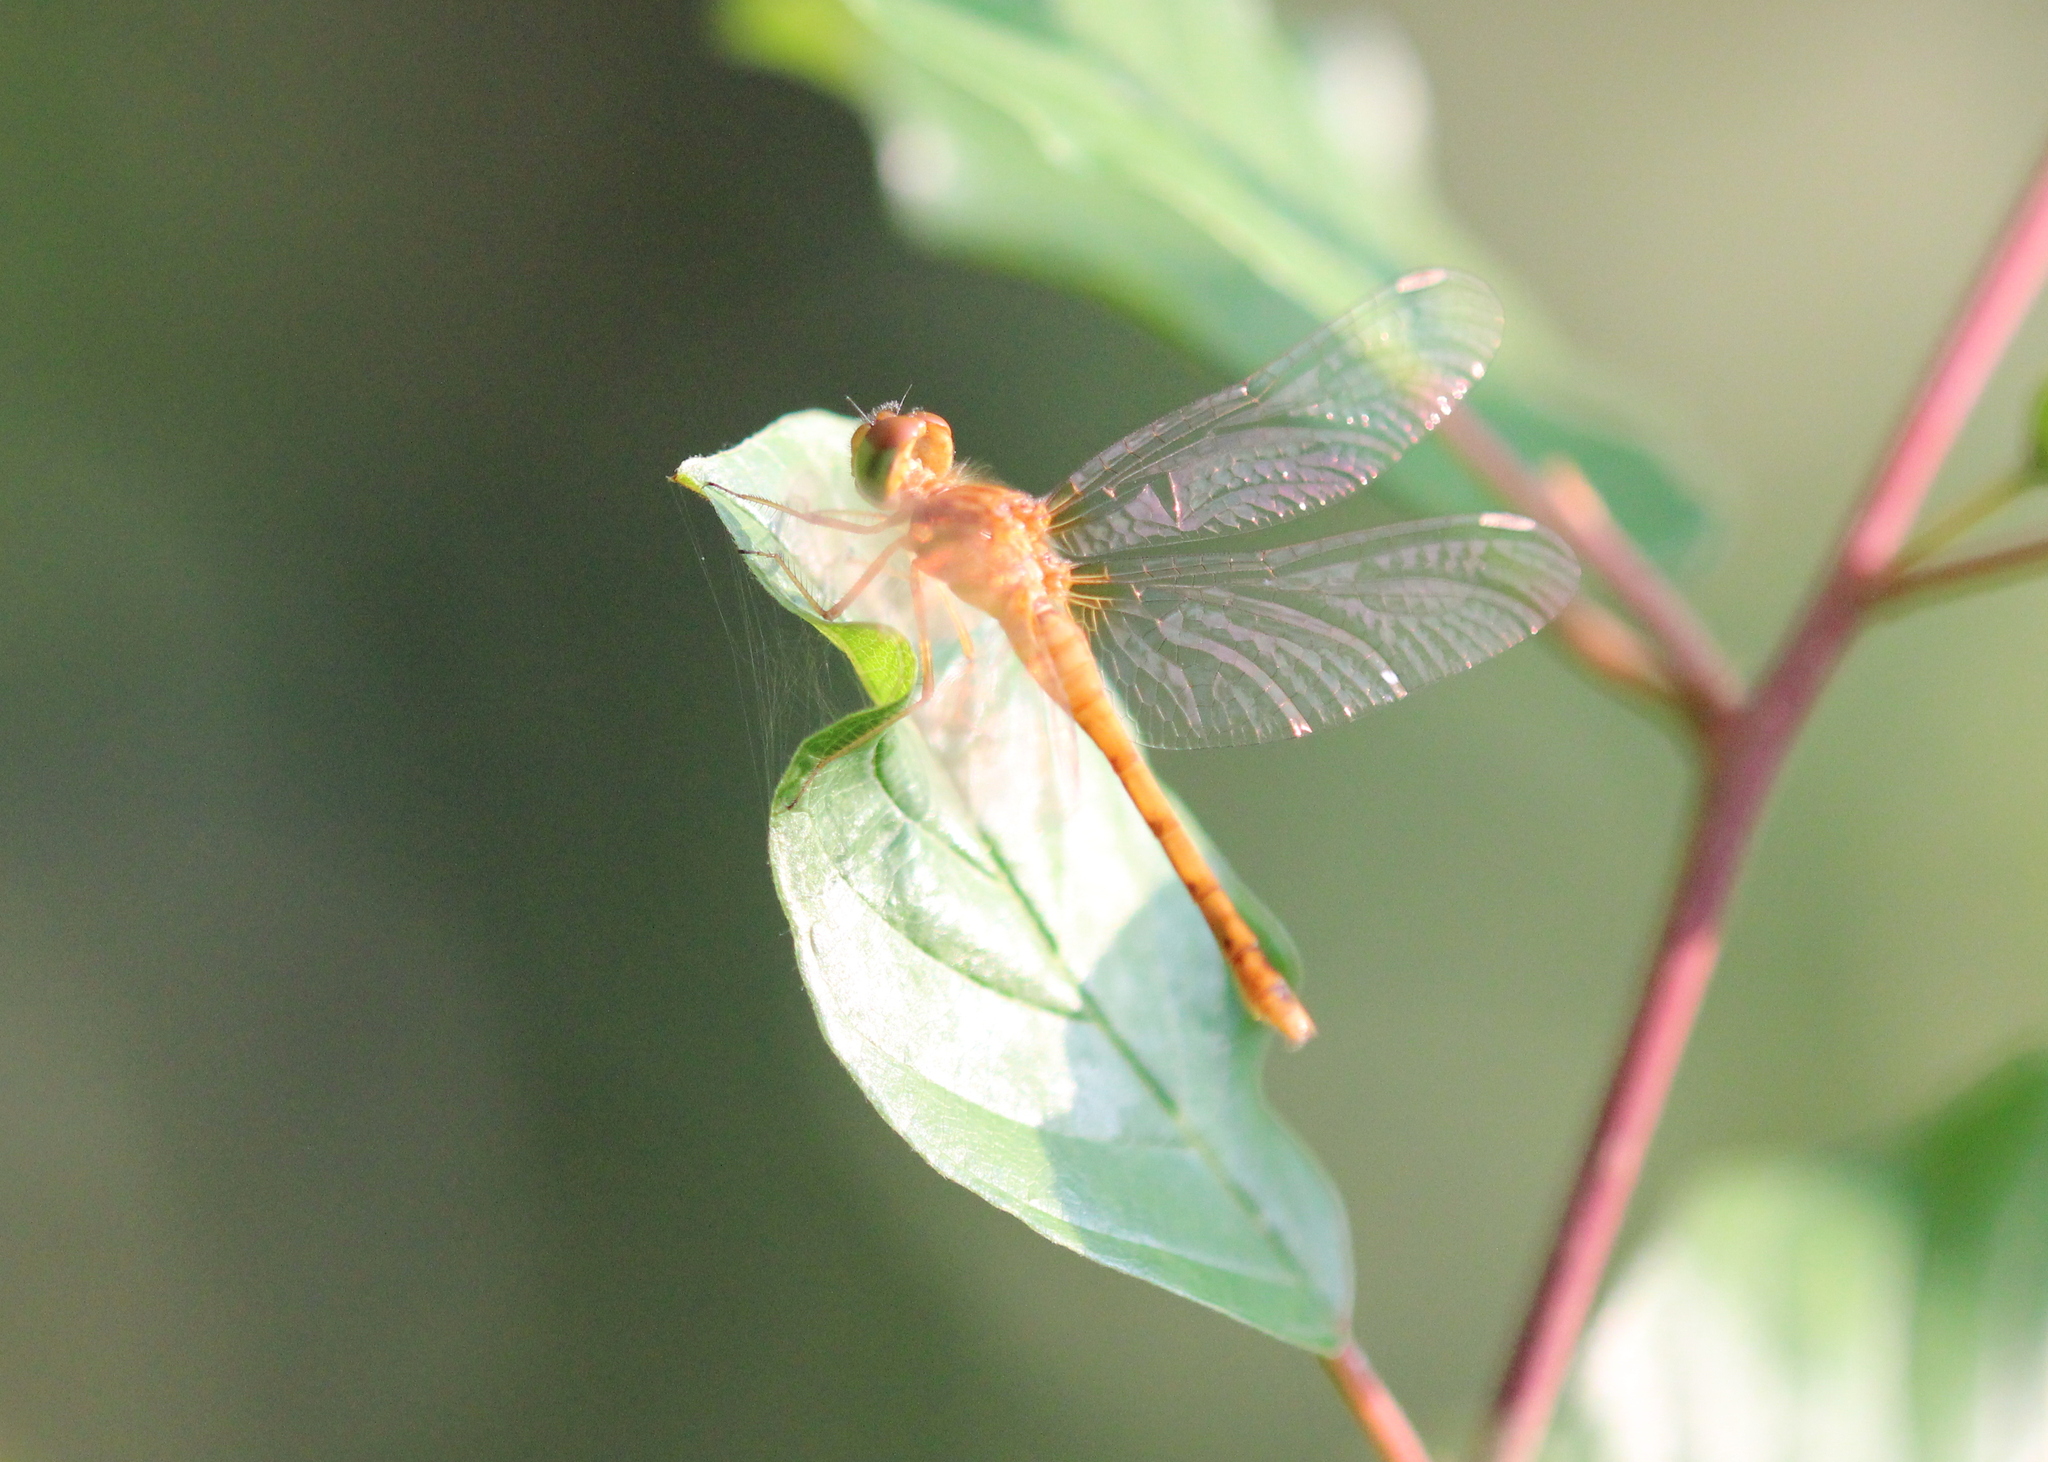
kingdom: Animalia
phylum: Arthropoda
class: Insecta
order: Odonata
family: Libellulidae
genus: Sympetrum
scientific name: Sympetrum vicinum
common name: Autumn meadowhawk
